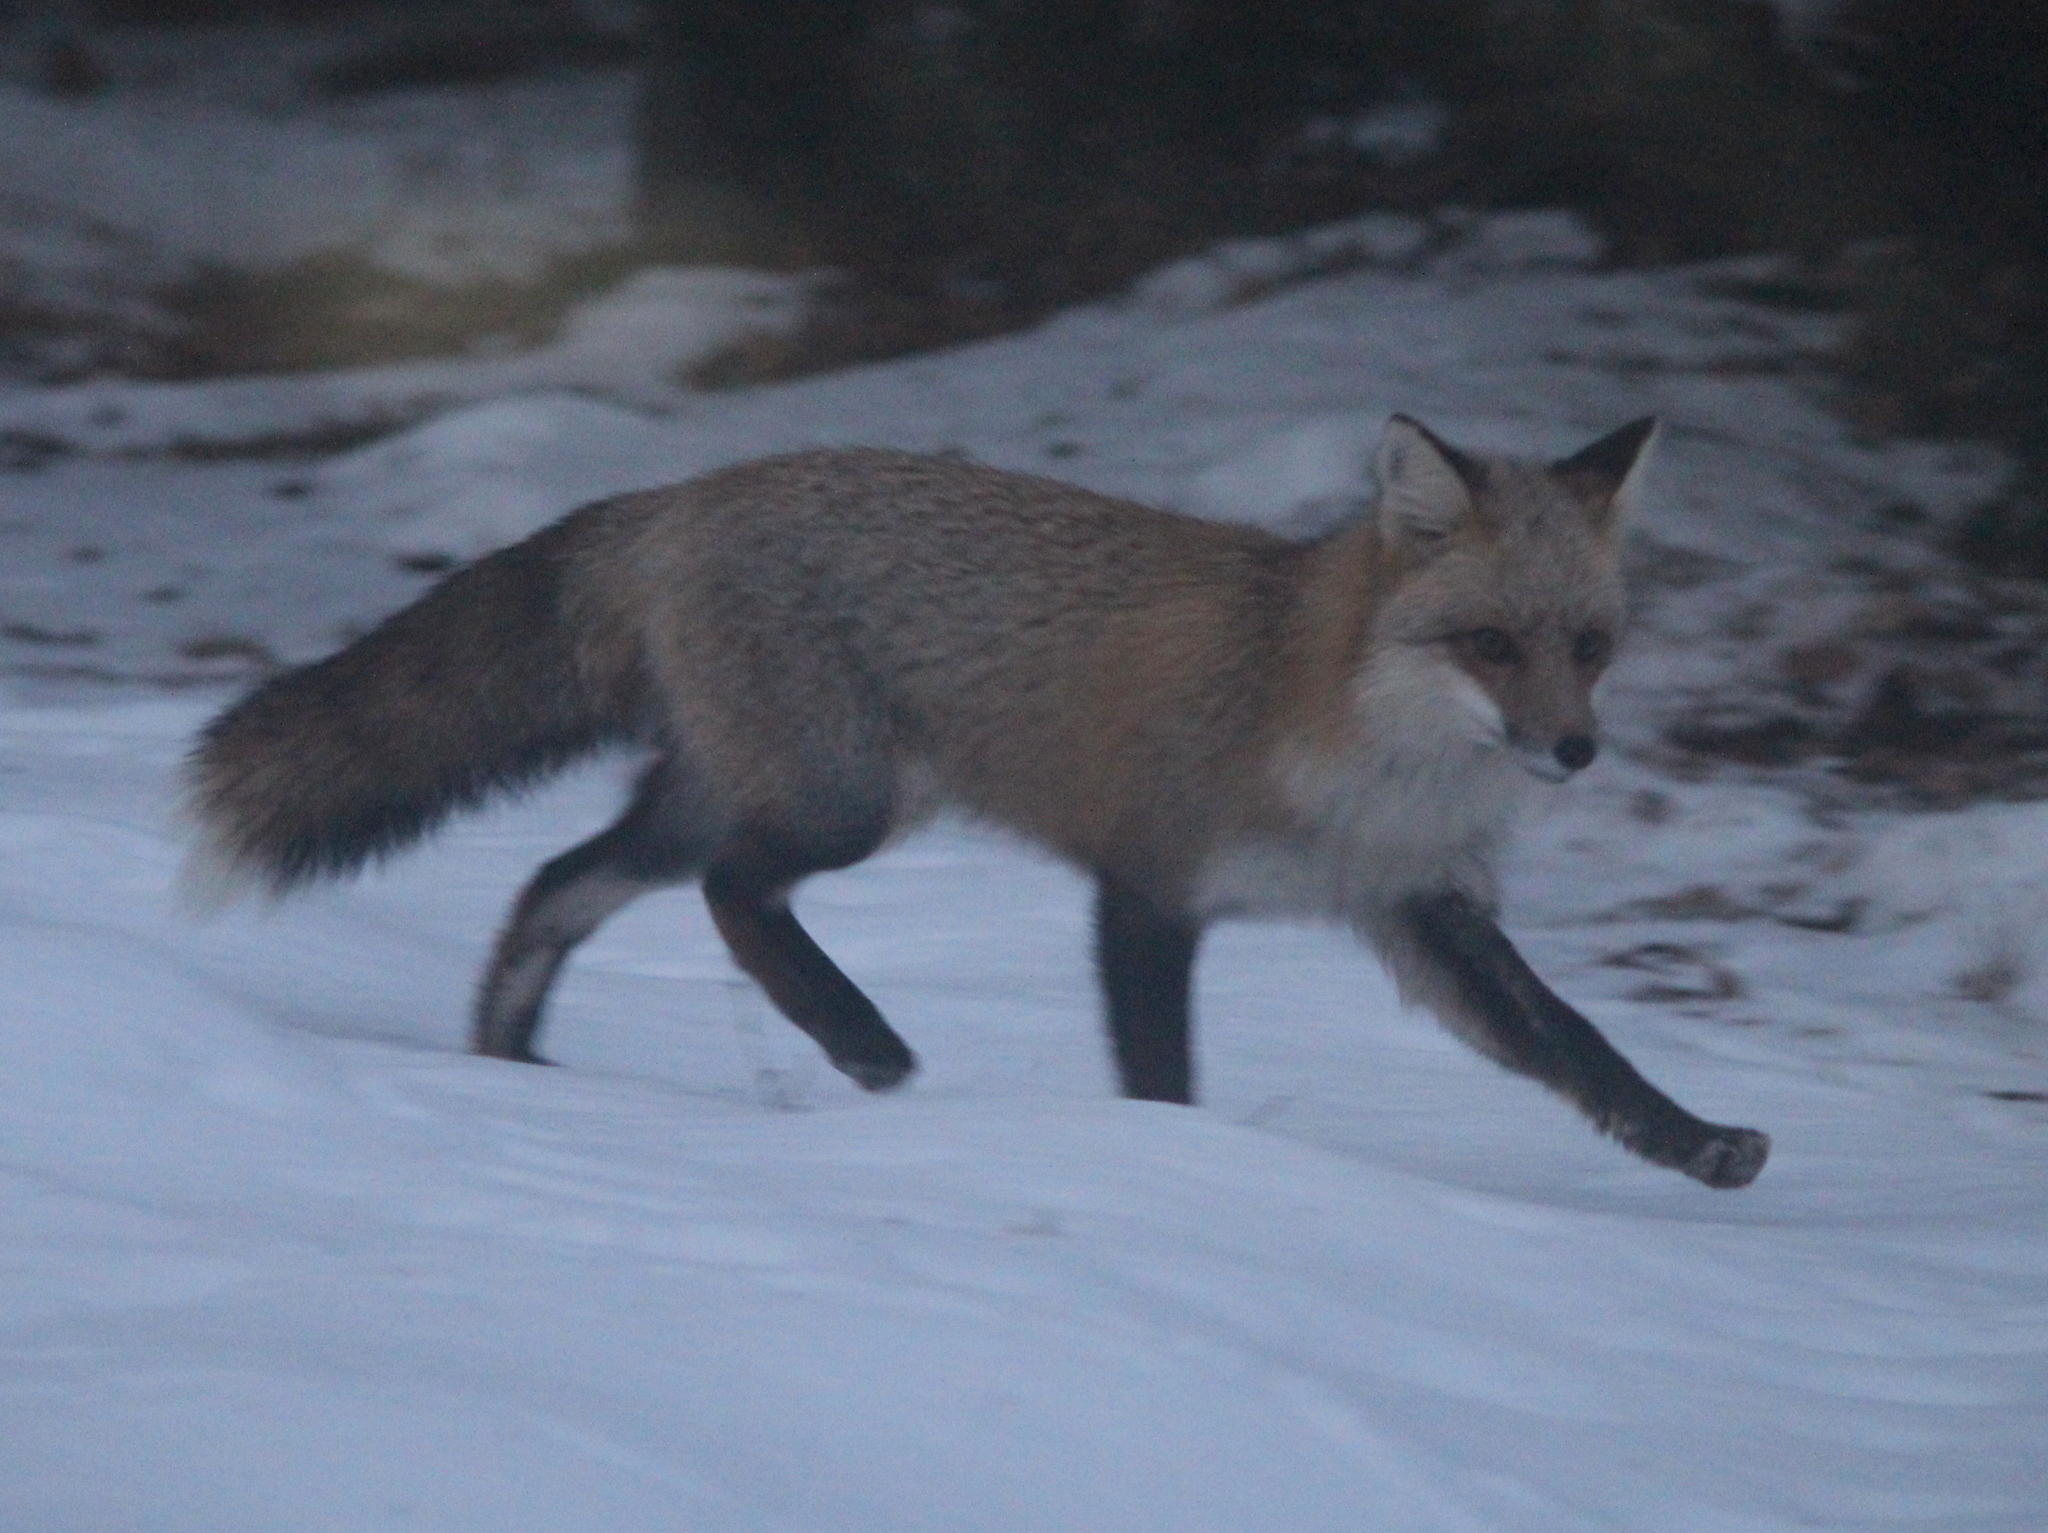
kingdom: Animalia
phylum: Chordata
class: Mammalia
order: Carnivora
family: Canidae
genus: Vulpes
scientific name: Vulpes vulpes
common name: Red fox
